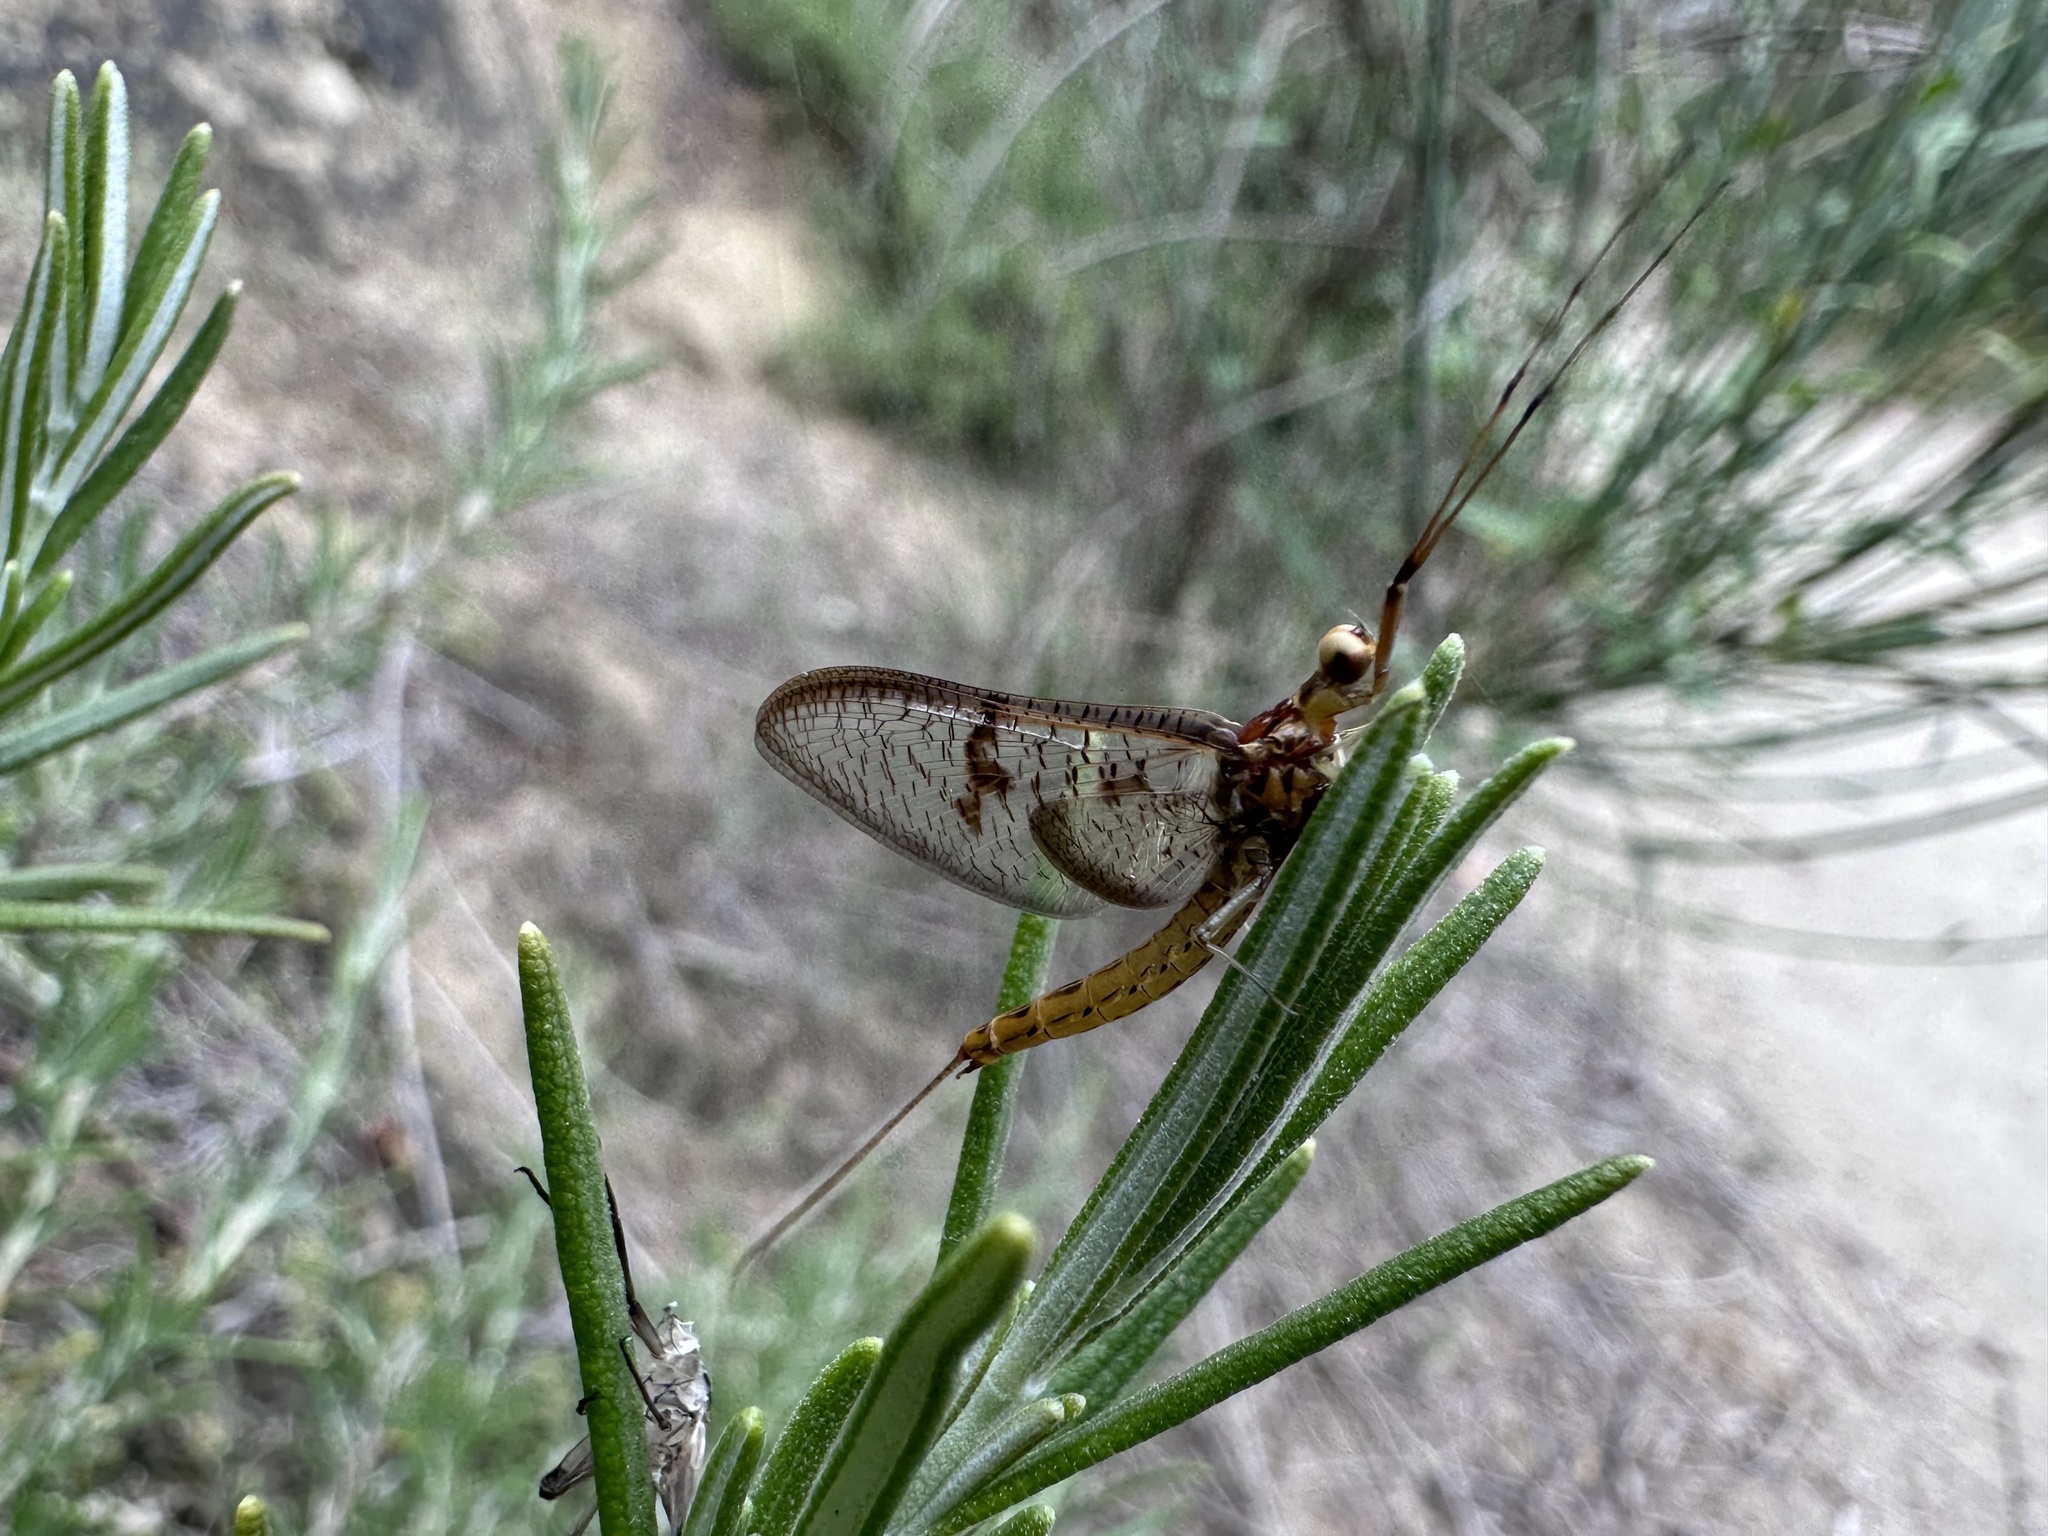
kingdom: Animalia
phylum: Arthropoda
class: Insecta
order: Ephemeroptera
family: Ephemeridae
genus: Ephemera
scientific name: Ephemera glaucops
